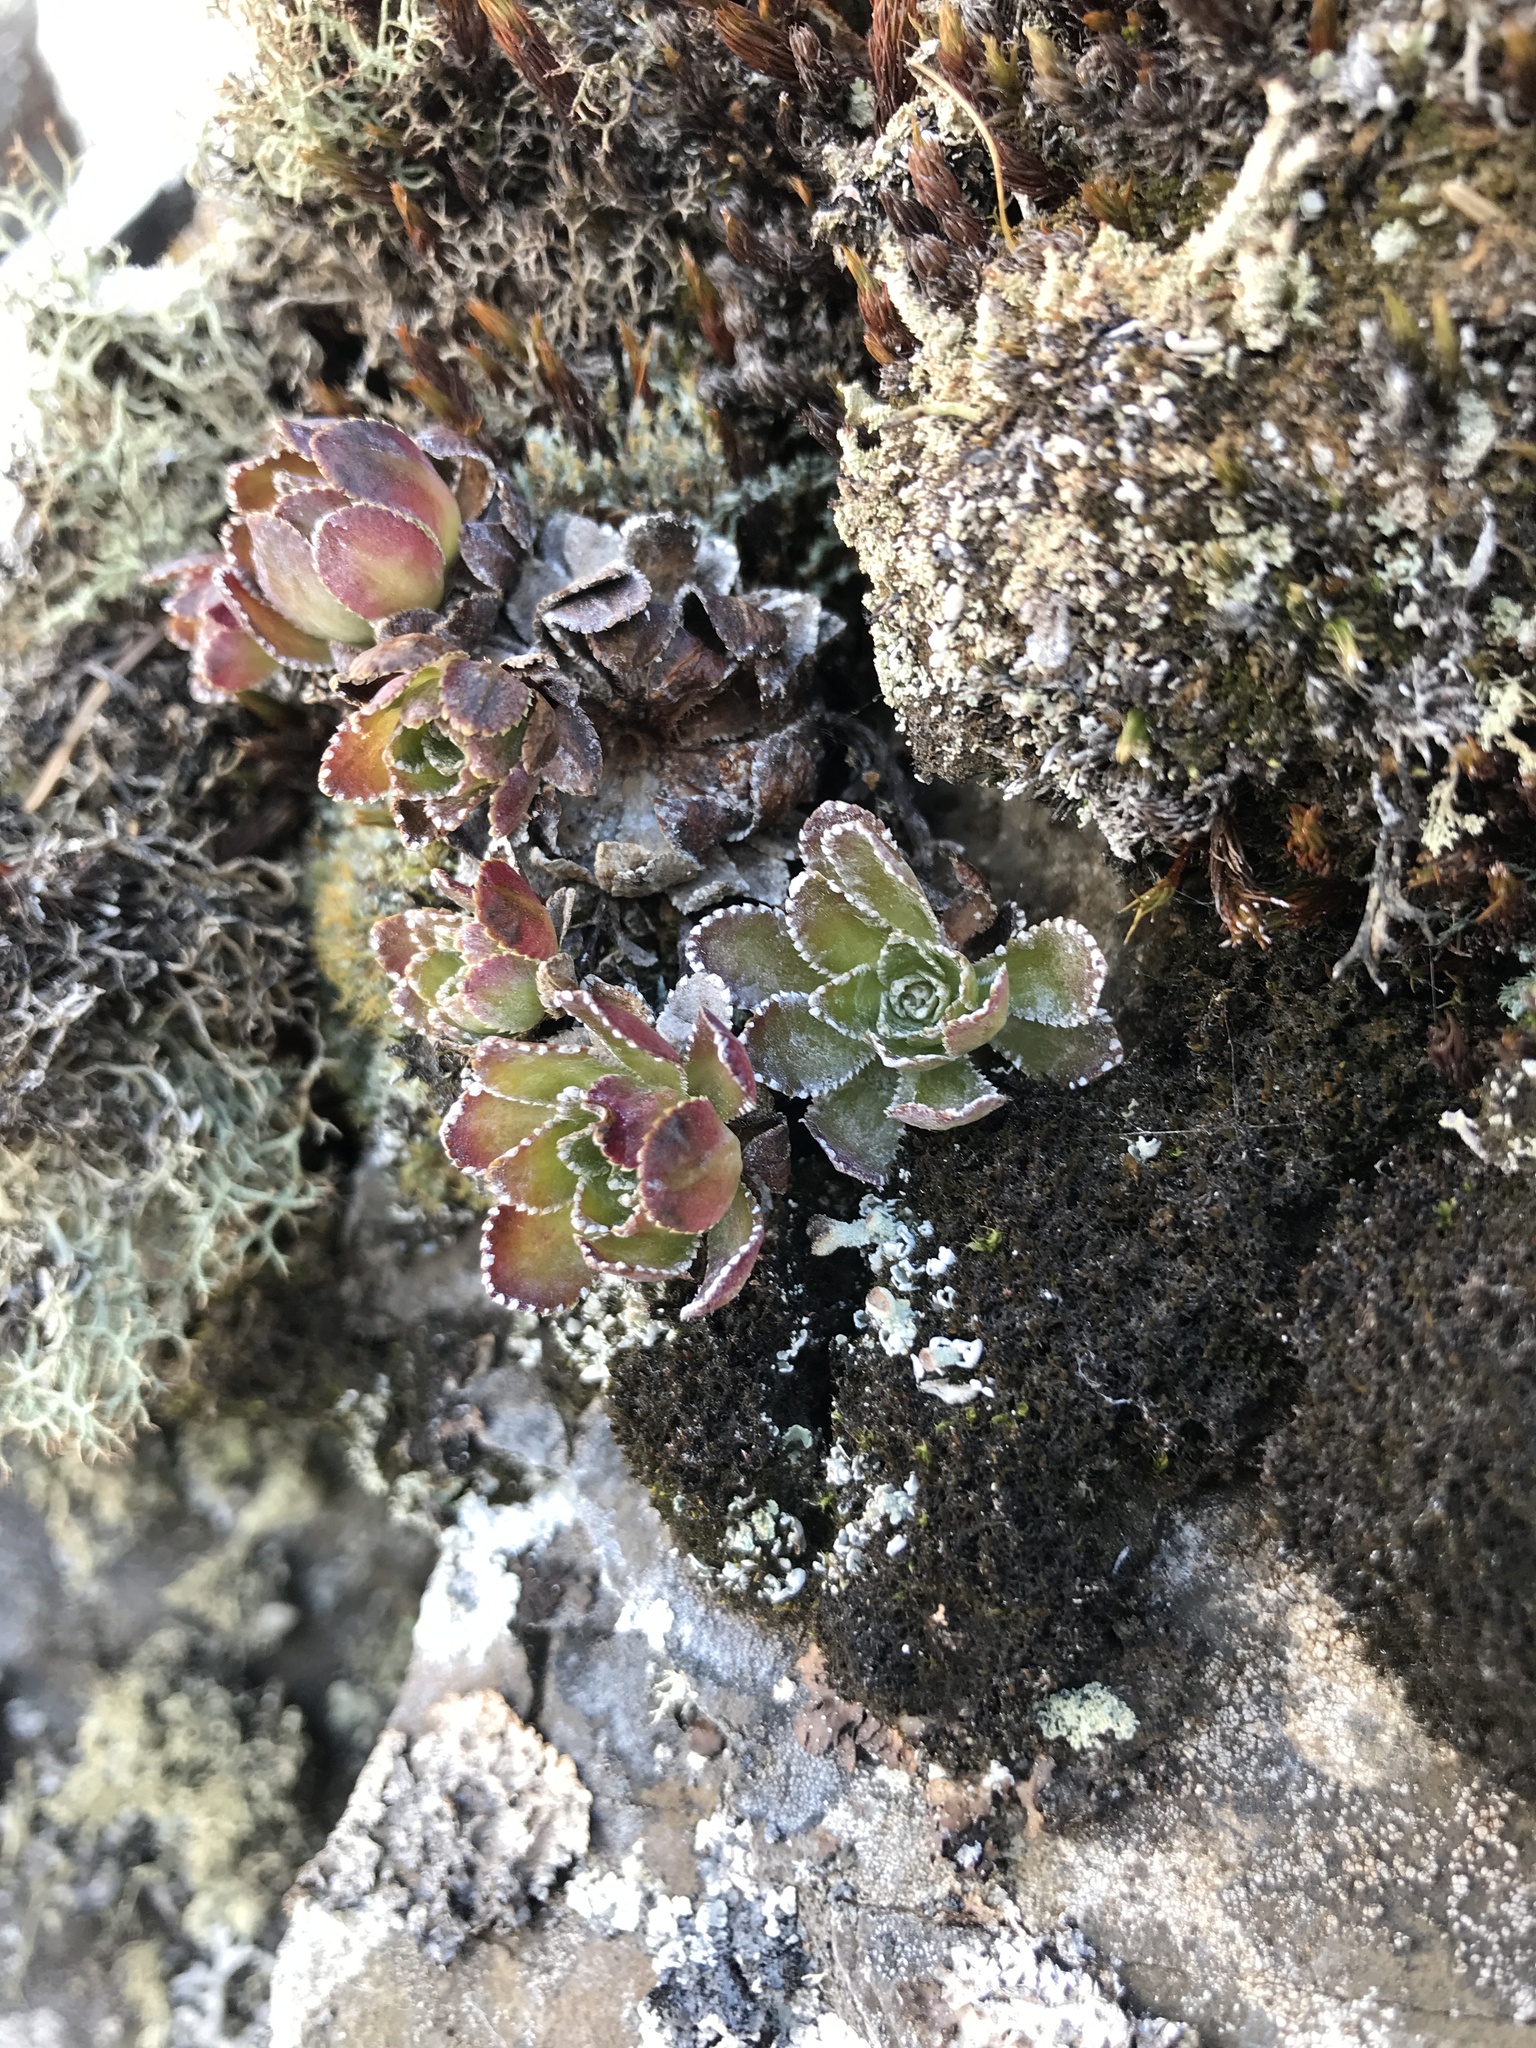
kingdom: Plantae
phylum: Tracheophyta
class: Magnoliopsida
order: Saxifragales
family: Saxifragaceae
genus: Saxifraga
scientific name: Saxifraga paniculata
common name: Livelong saxifrage
